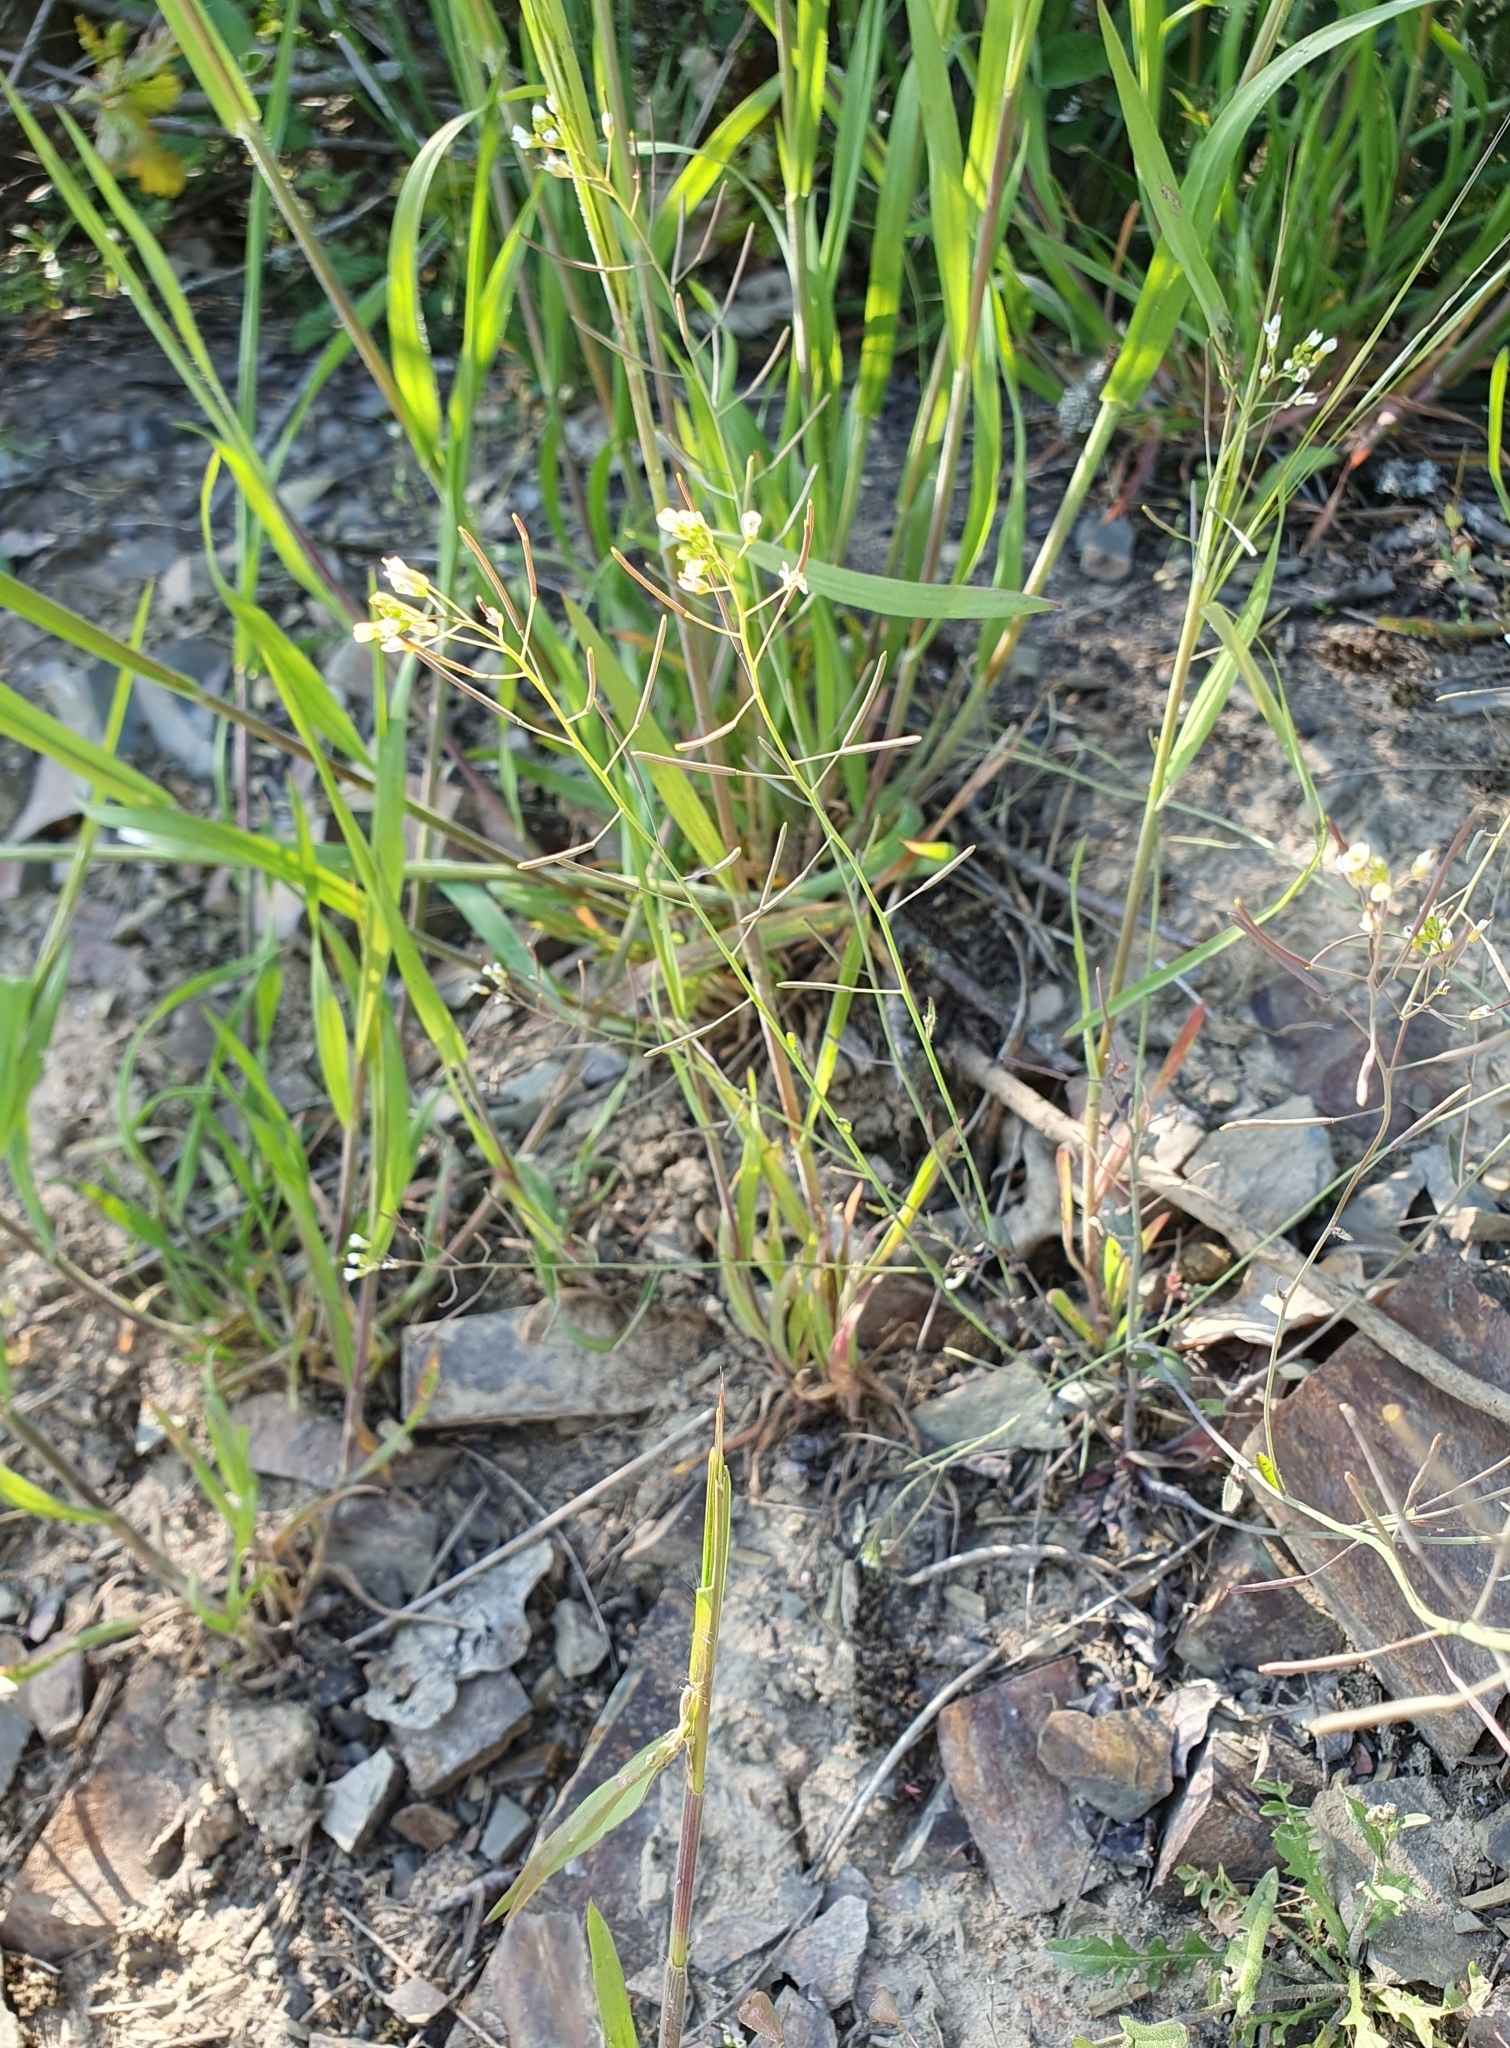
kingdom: Plantae
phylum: Tracheophyta
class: Magnoliopsida
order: Brassicales
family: Brassicaceae
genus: Arabidopsis
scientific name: Arabidopsis thaliana
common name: Thale cress
